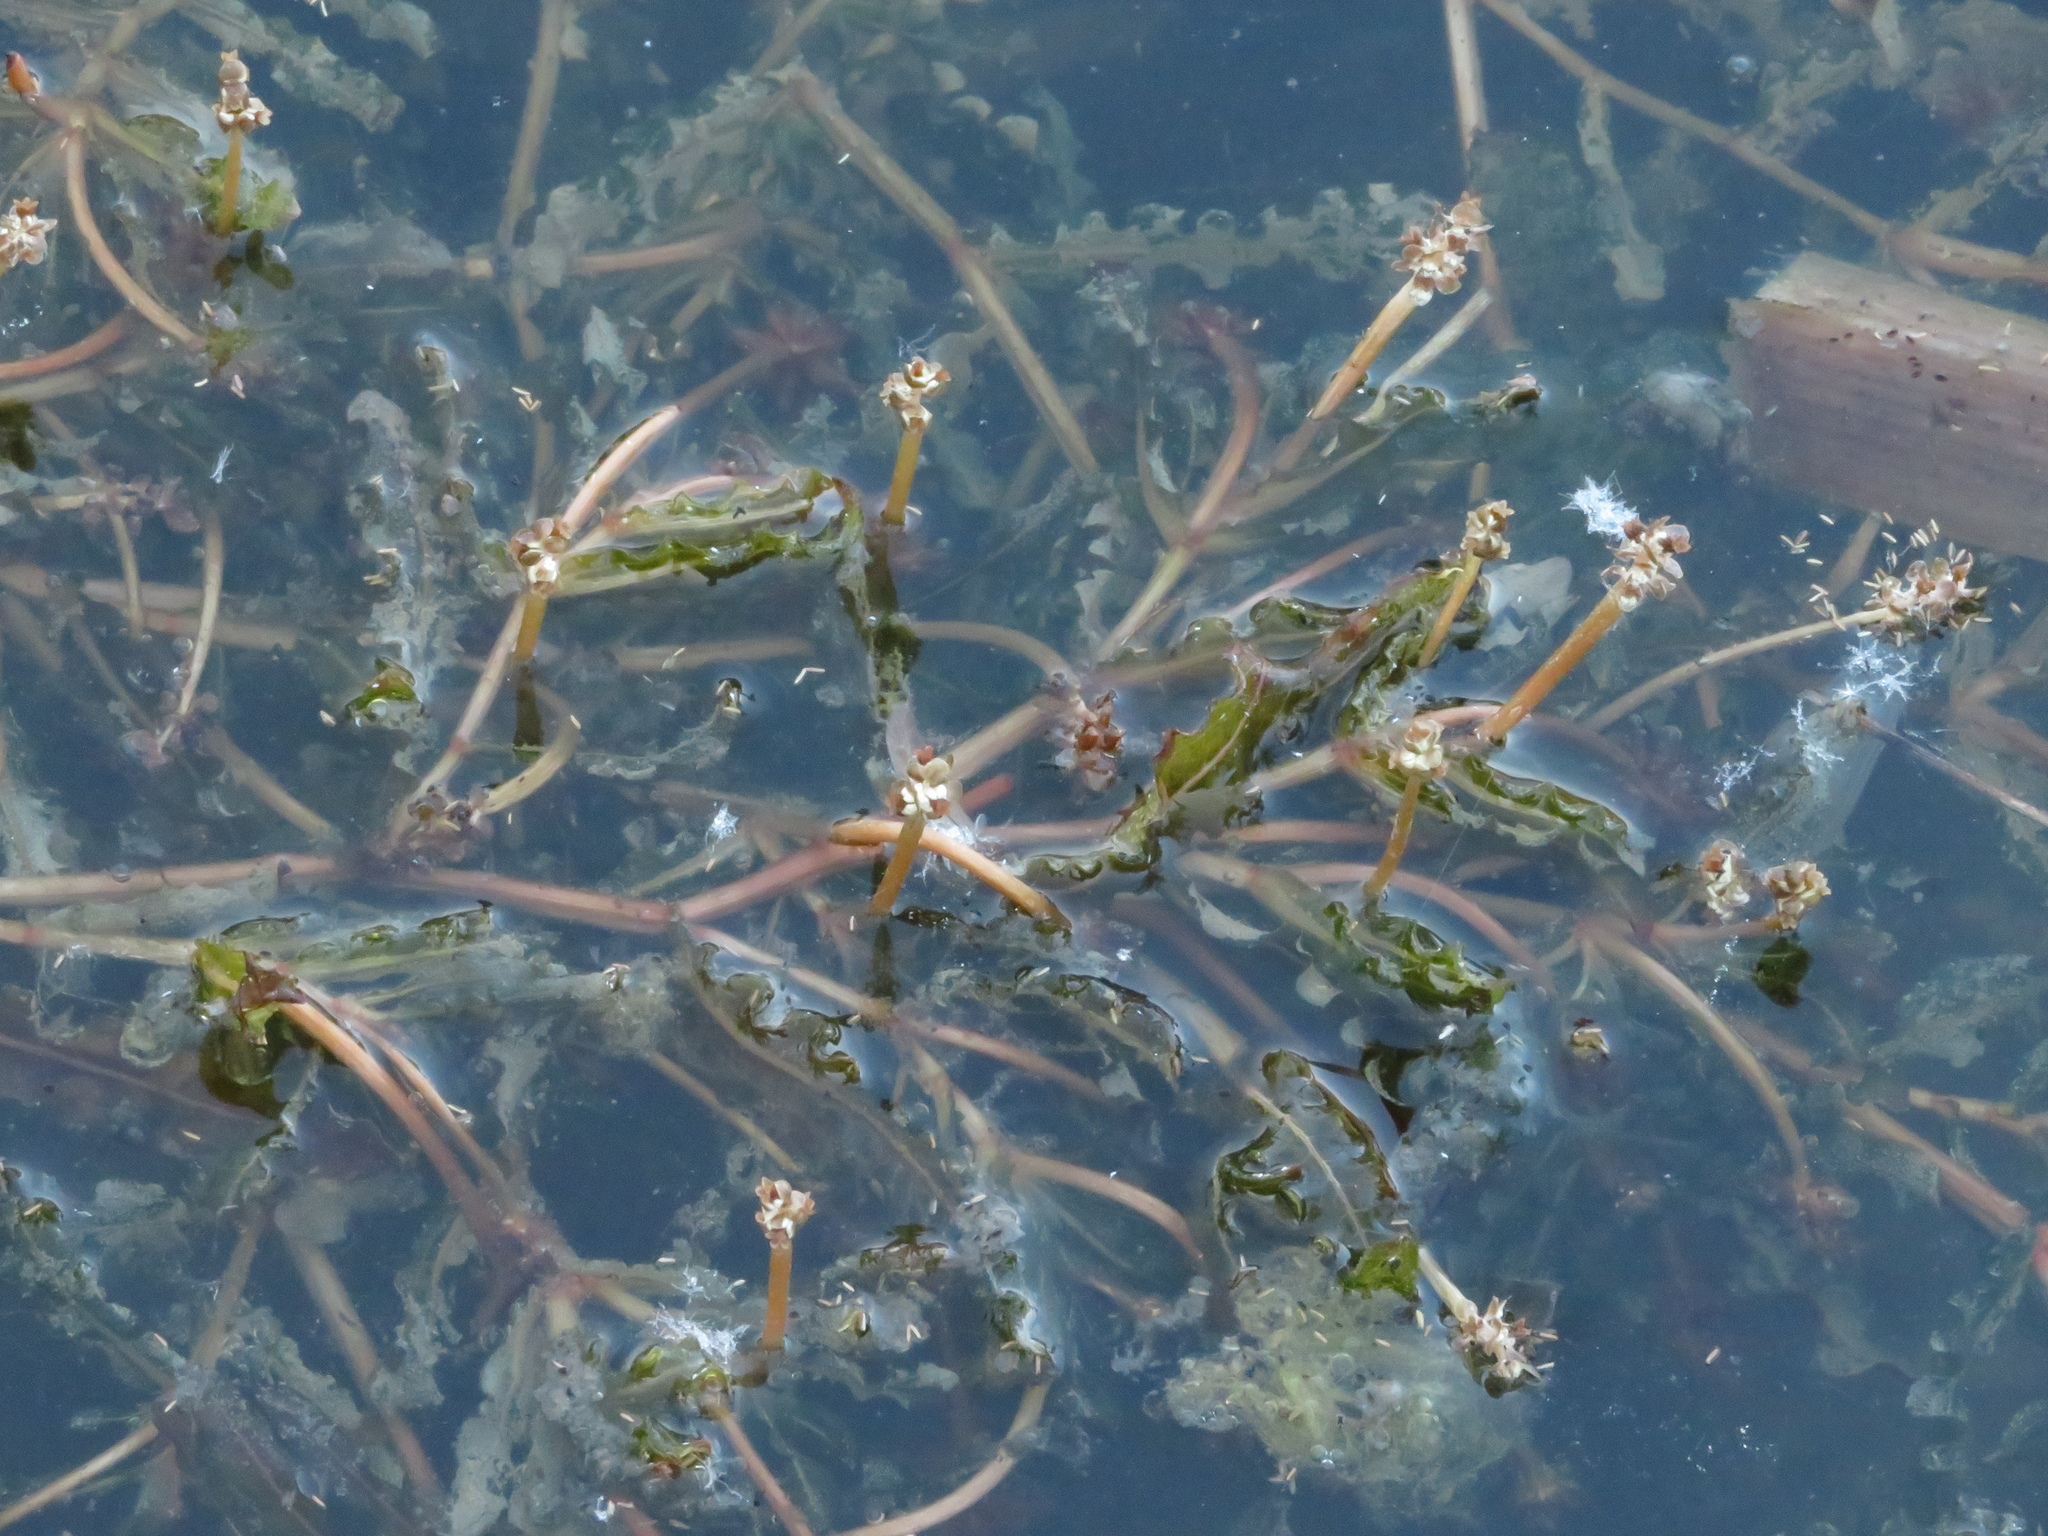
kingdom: Plantae
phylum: Tracheophyta
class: Liliopsida
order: Alismatales
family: Potamogetonaceae
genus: Potamogeton
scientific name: Potamogeton crispus
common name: Curled pondweed
